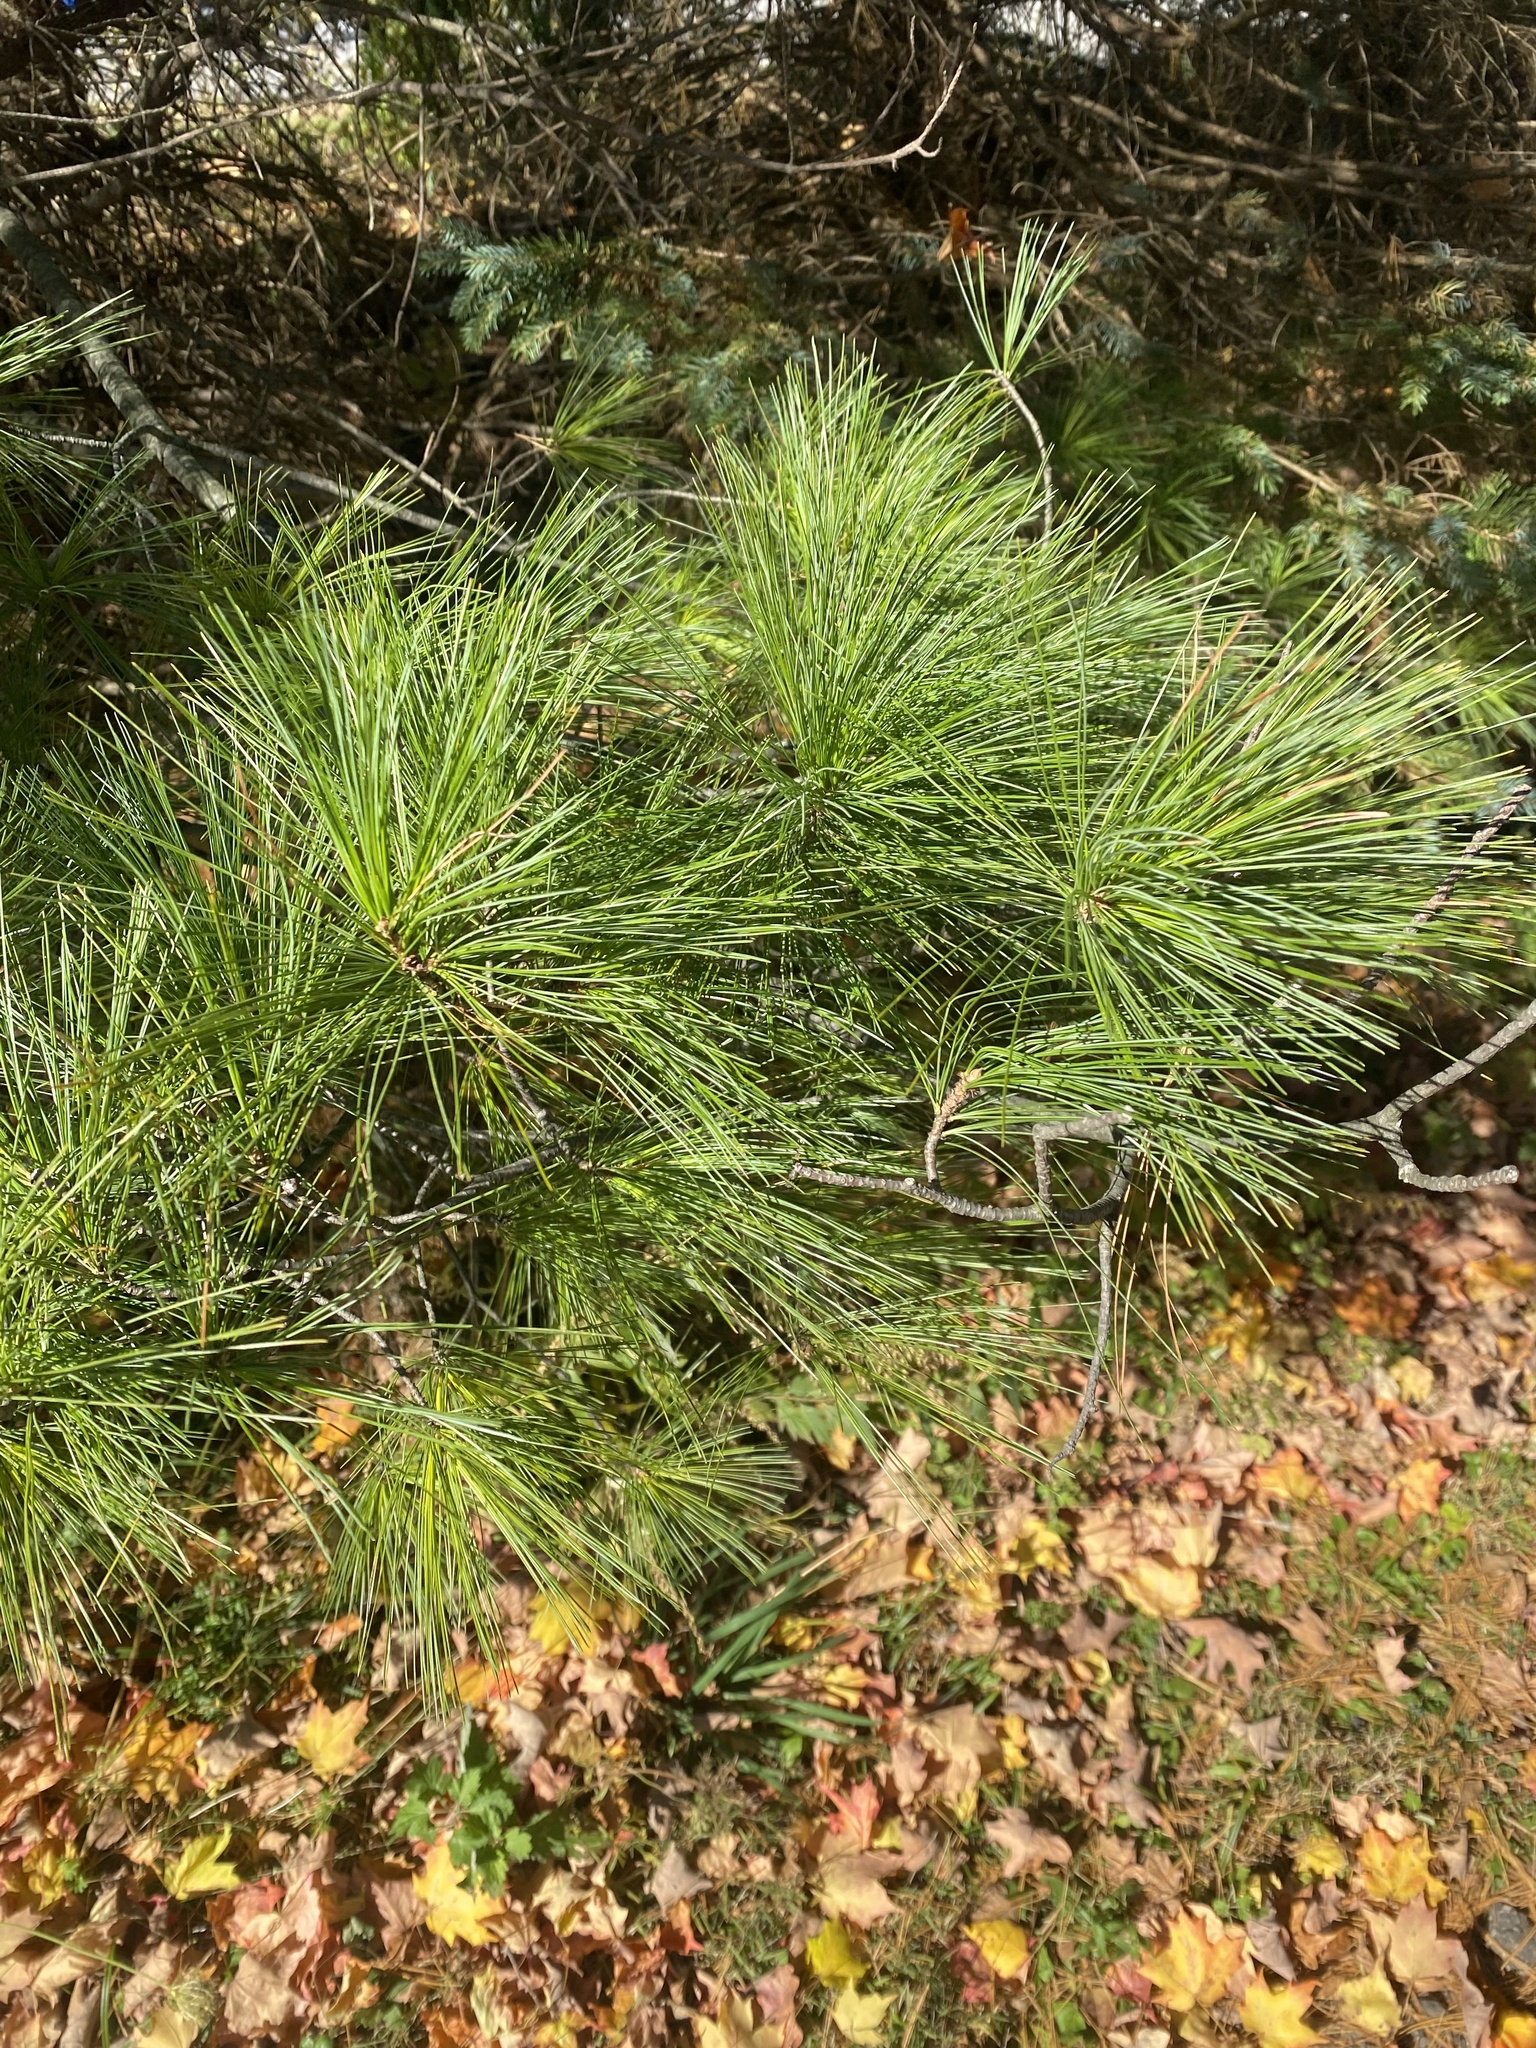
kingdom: Plantae
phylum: Tracheophyta
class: Pinopsida
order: Pinales
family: Pinaceae
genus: Pinus
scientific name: Pinus strobus
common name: Weymouth pine
